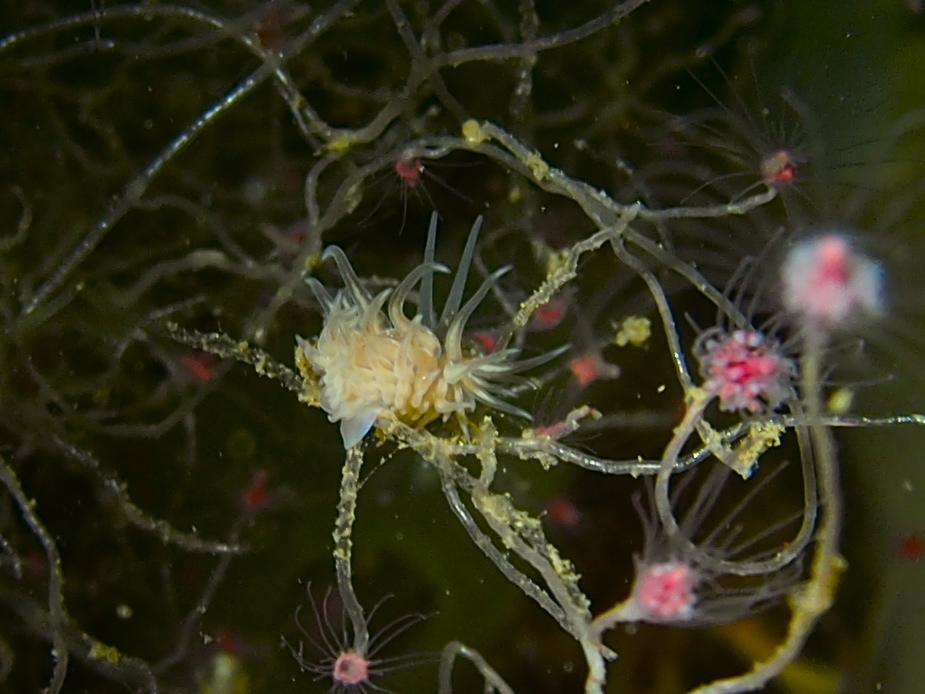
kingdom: Animalia
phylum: Mollusca
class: Gastropoda
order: Nudibranchia
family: Cumanotidae
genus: Cumanotus
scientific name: Cumanotus beaumonti
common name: Polyp aeolis
